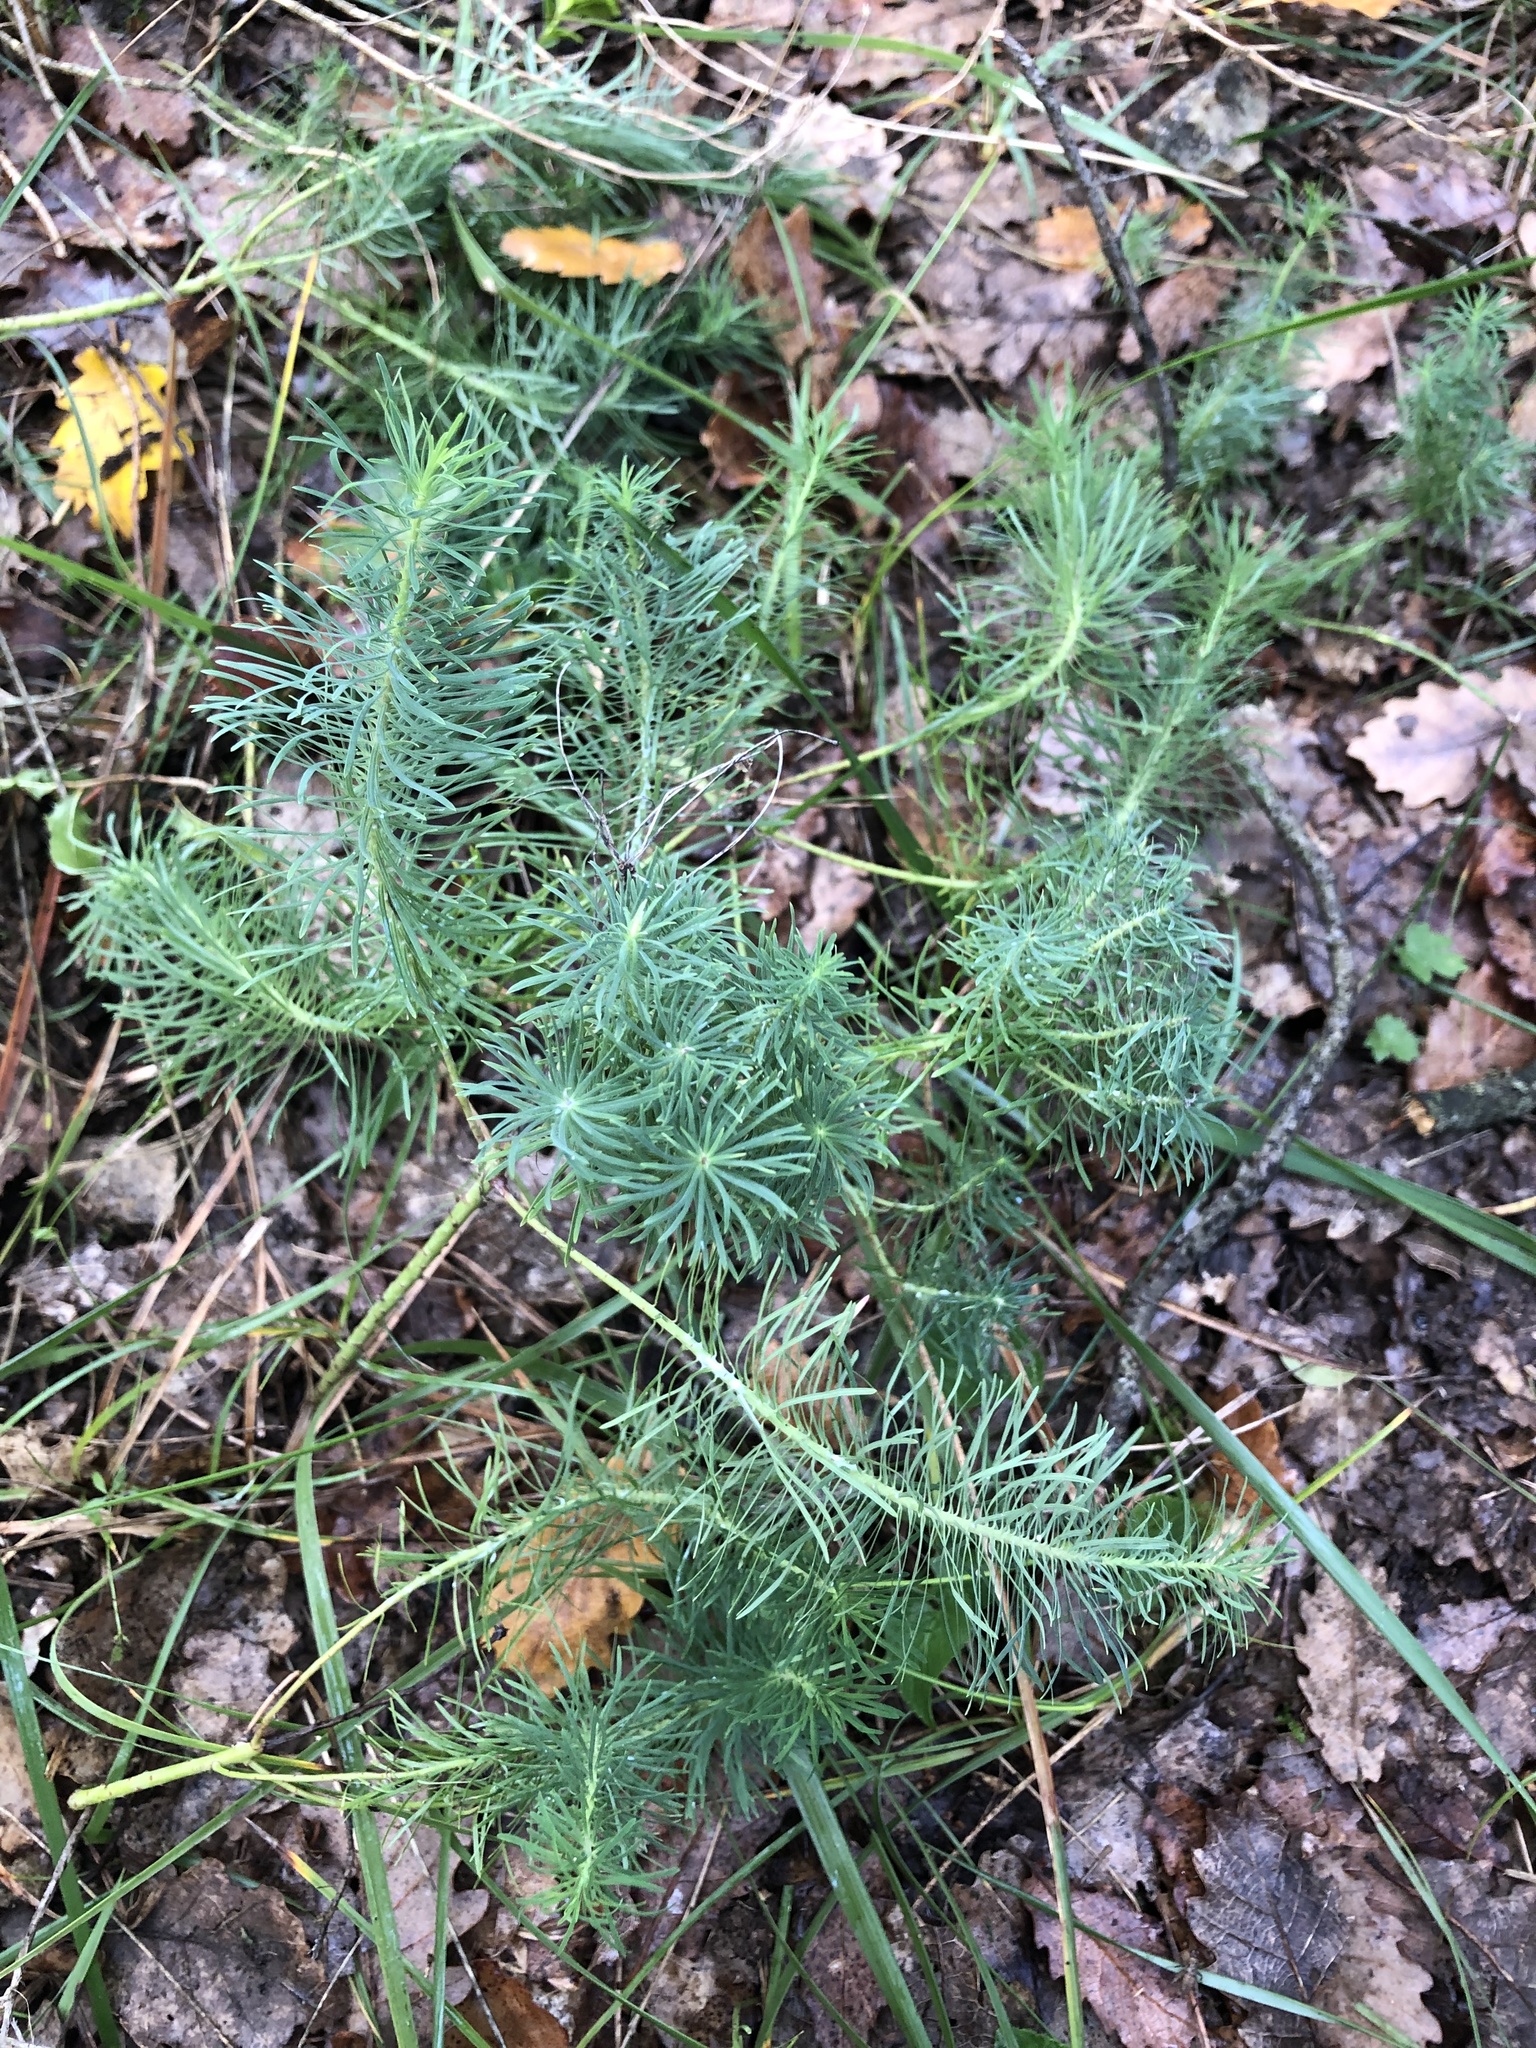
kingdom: Plantae
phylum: Tracheophyta
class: Magnoliopsida
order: Malpighiales
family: Euphorbiaceae
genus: Euphorbia
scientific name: Euphorbia cyparissias
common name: Cypress spurge
